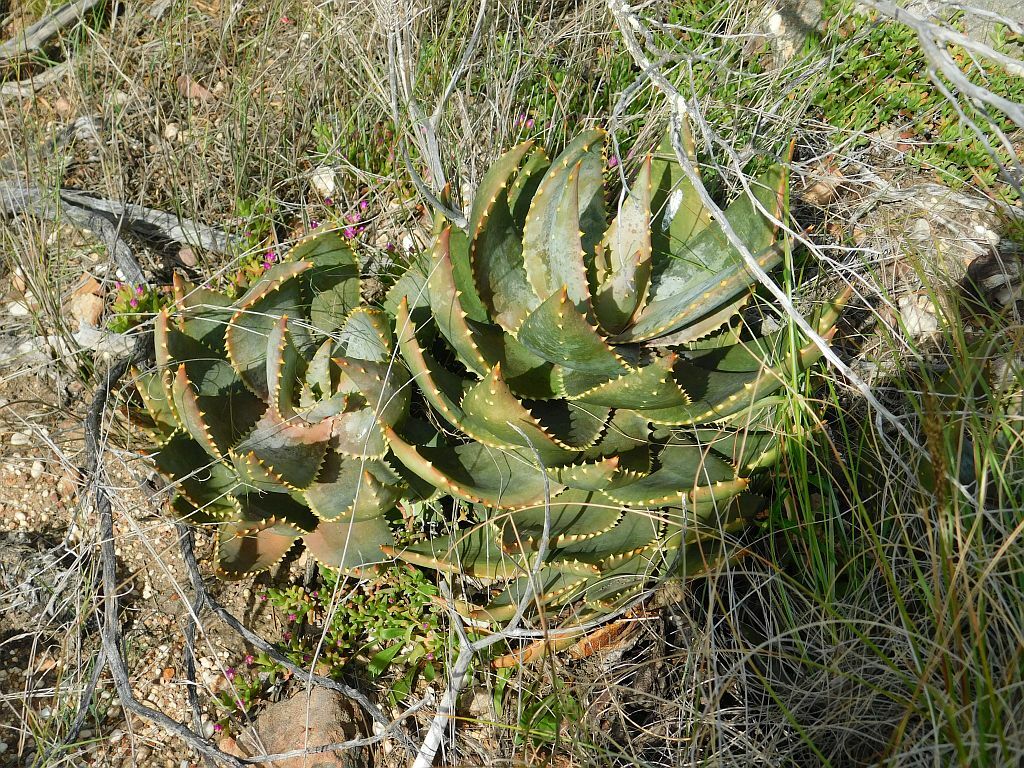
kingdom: Plantae
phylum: Tracheophyta
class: Liliopsida
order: Asparagales
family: Asphodelaceae
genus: Aloe
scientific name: Aloe perfoliata
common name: Mitra aloe
